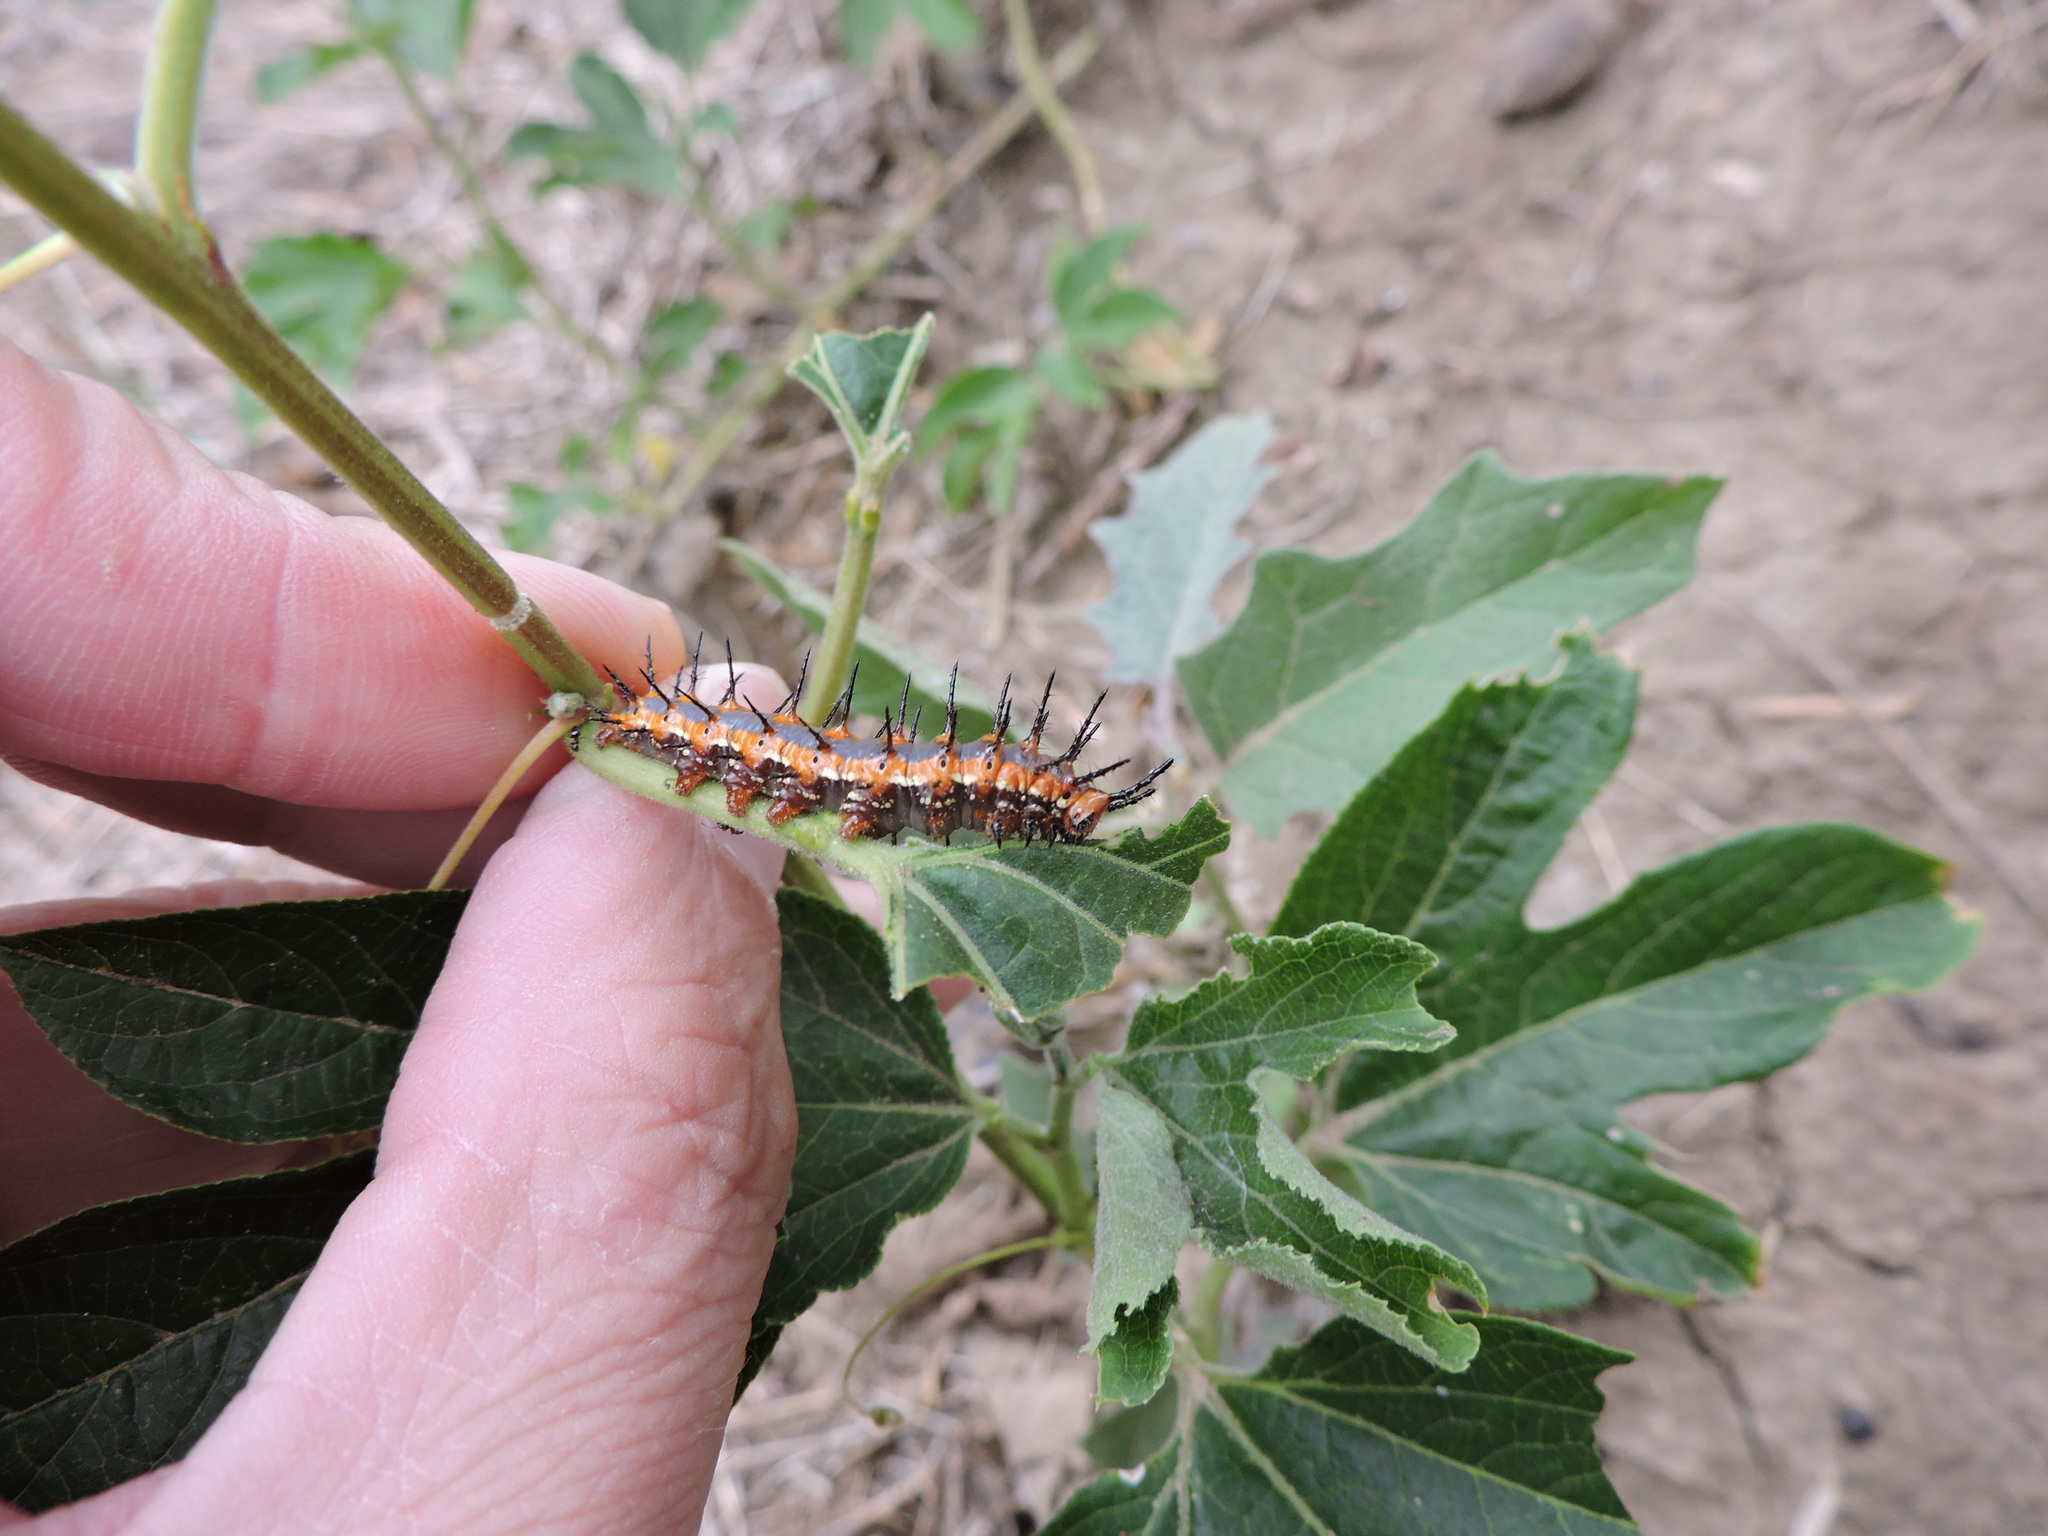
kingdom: Animalia
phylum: Arthropoda
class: Insecta
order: Lepidoptera
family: Nymphalidae
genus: Dione
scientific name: Dione vanillae
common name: Gulf fritillary
